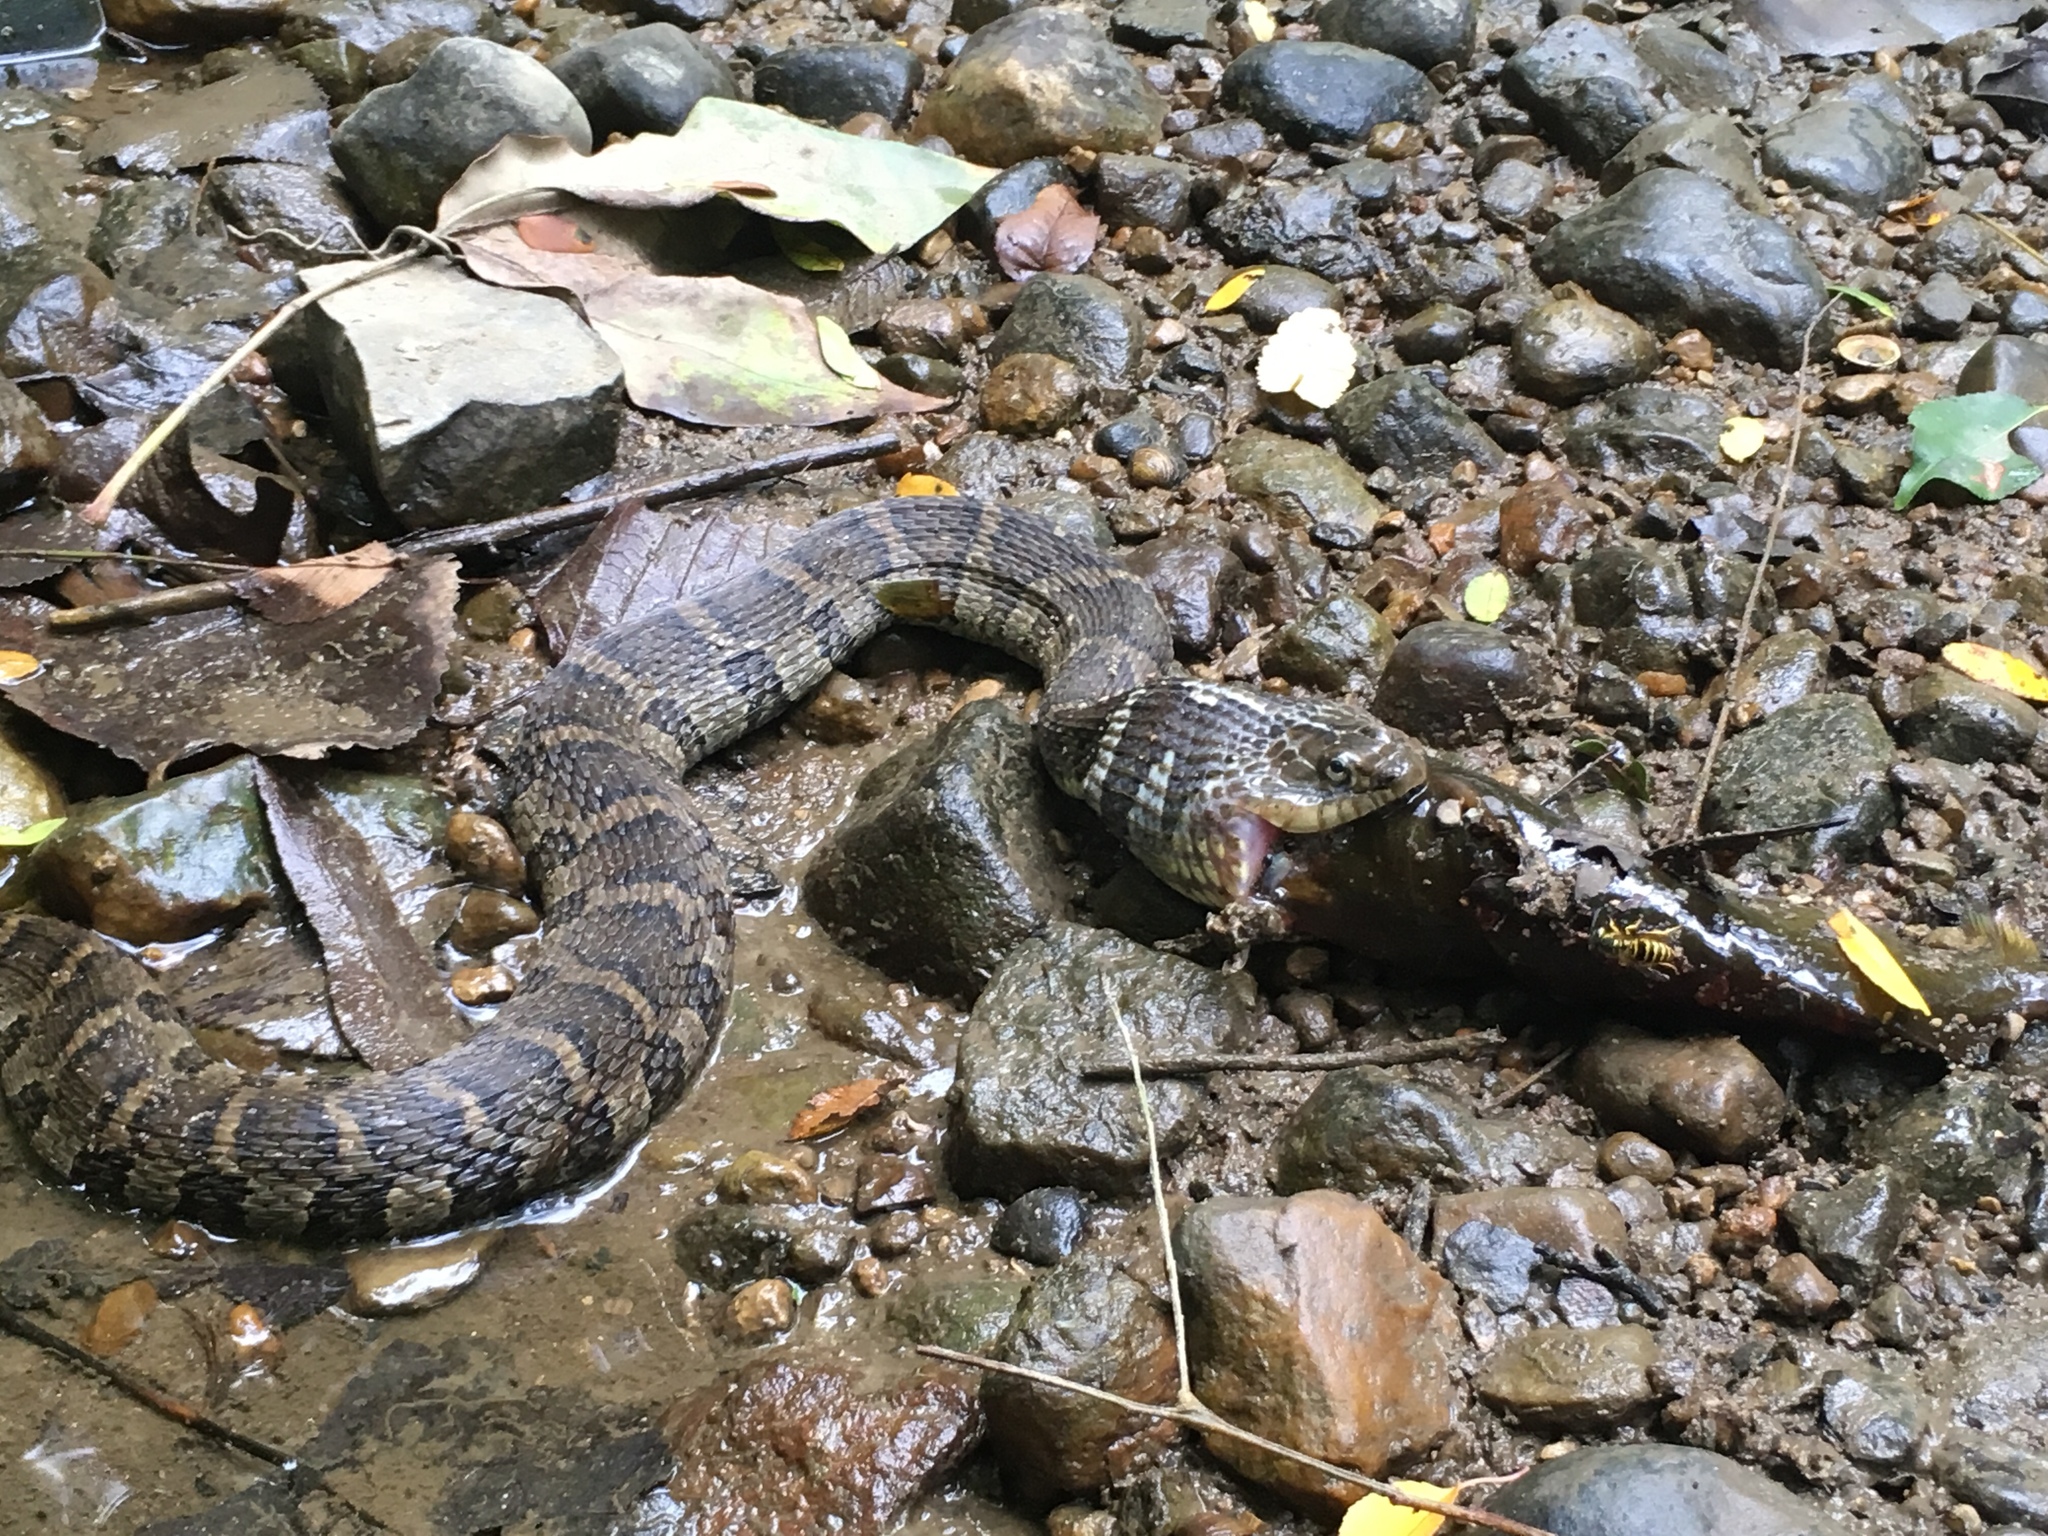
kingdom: Animalia
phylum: Chordata
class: Squamata
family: Colubridae
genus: Nerodia
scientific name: Nerodia sipedon
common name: Northern water snake
